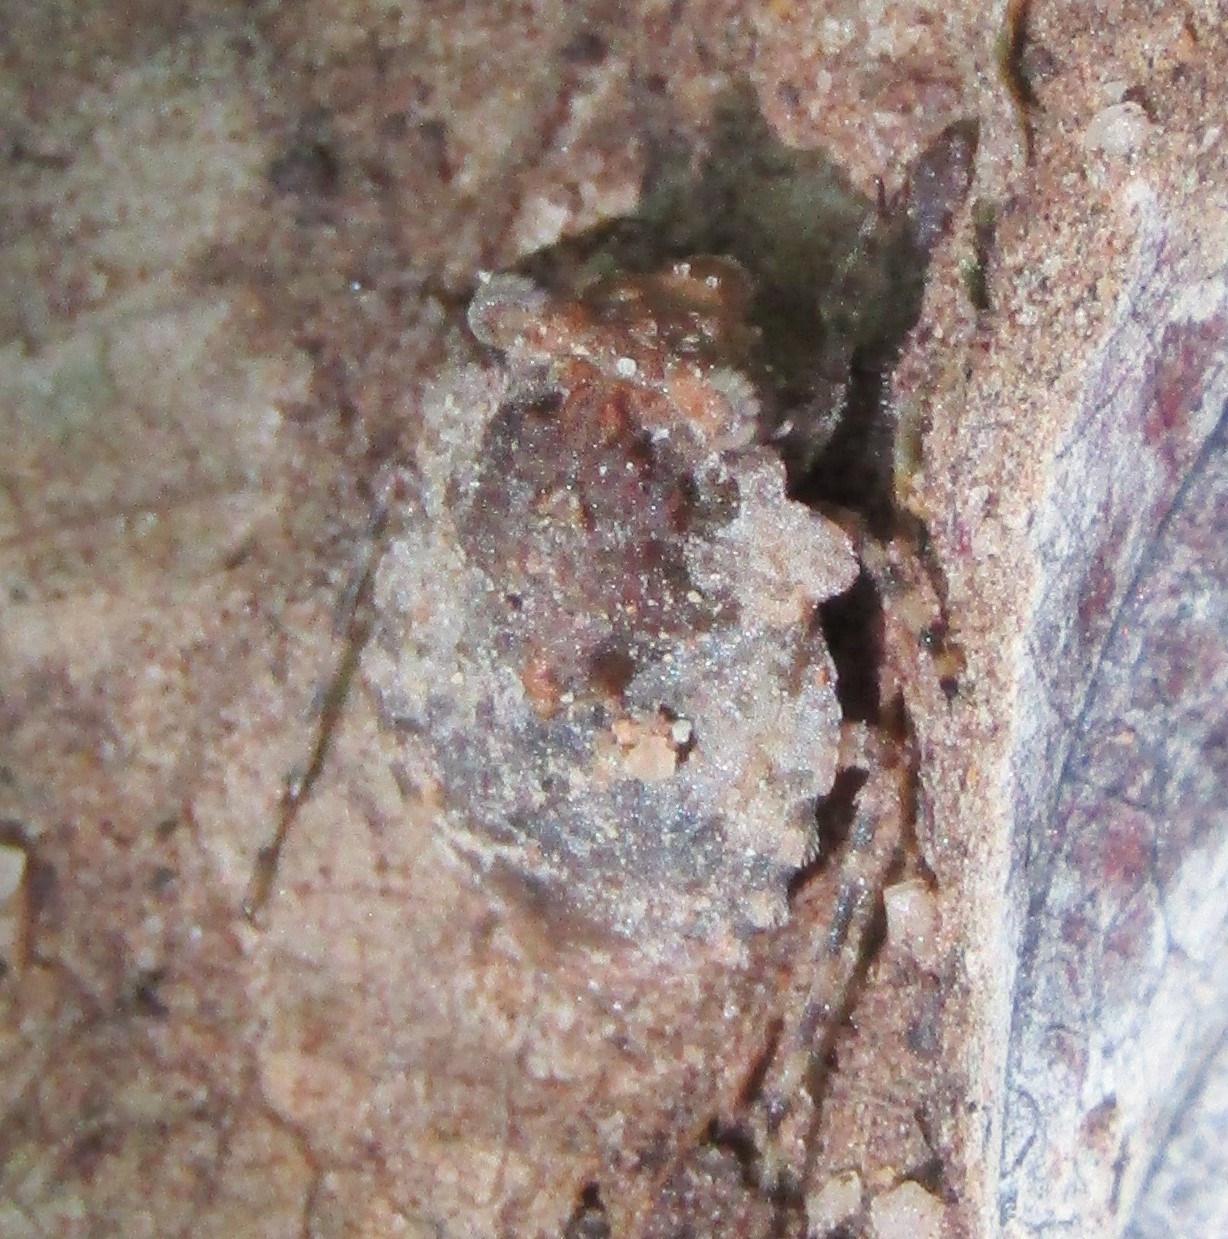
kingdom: Animalia
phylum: Arthropoda
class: Insecta
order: Hemiptera
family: Gelastocoridae
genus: Gelastocoris
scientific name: Gelastocoris oculatus
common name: Toad bug
